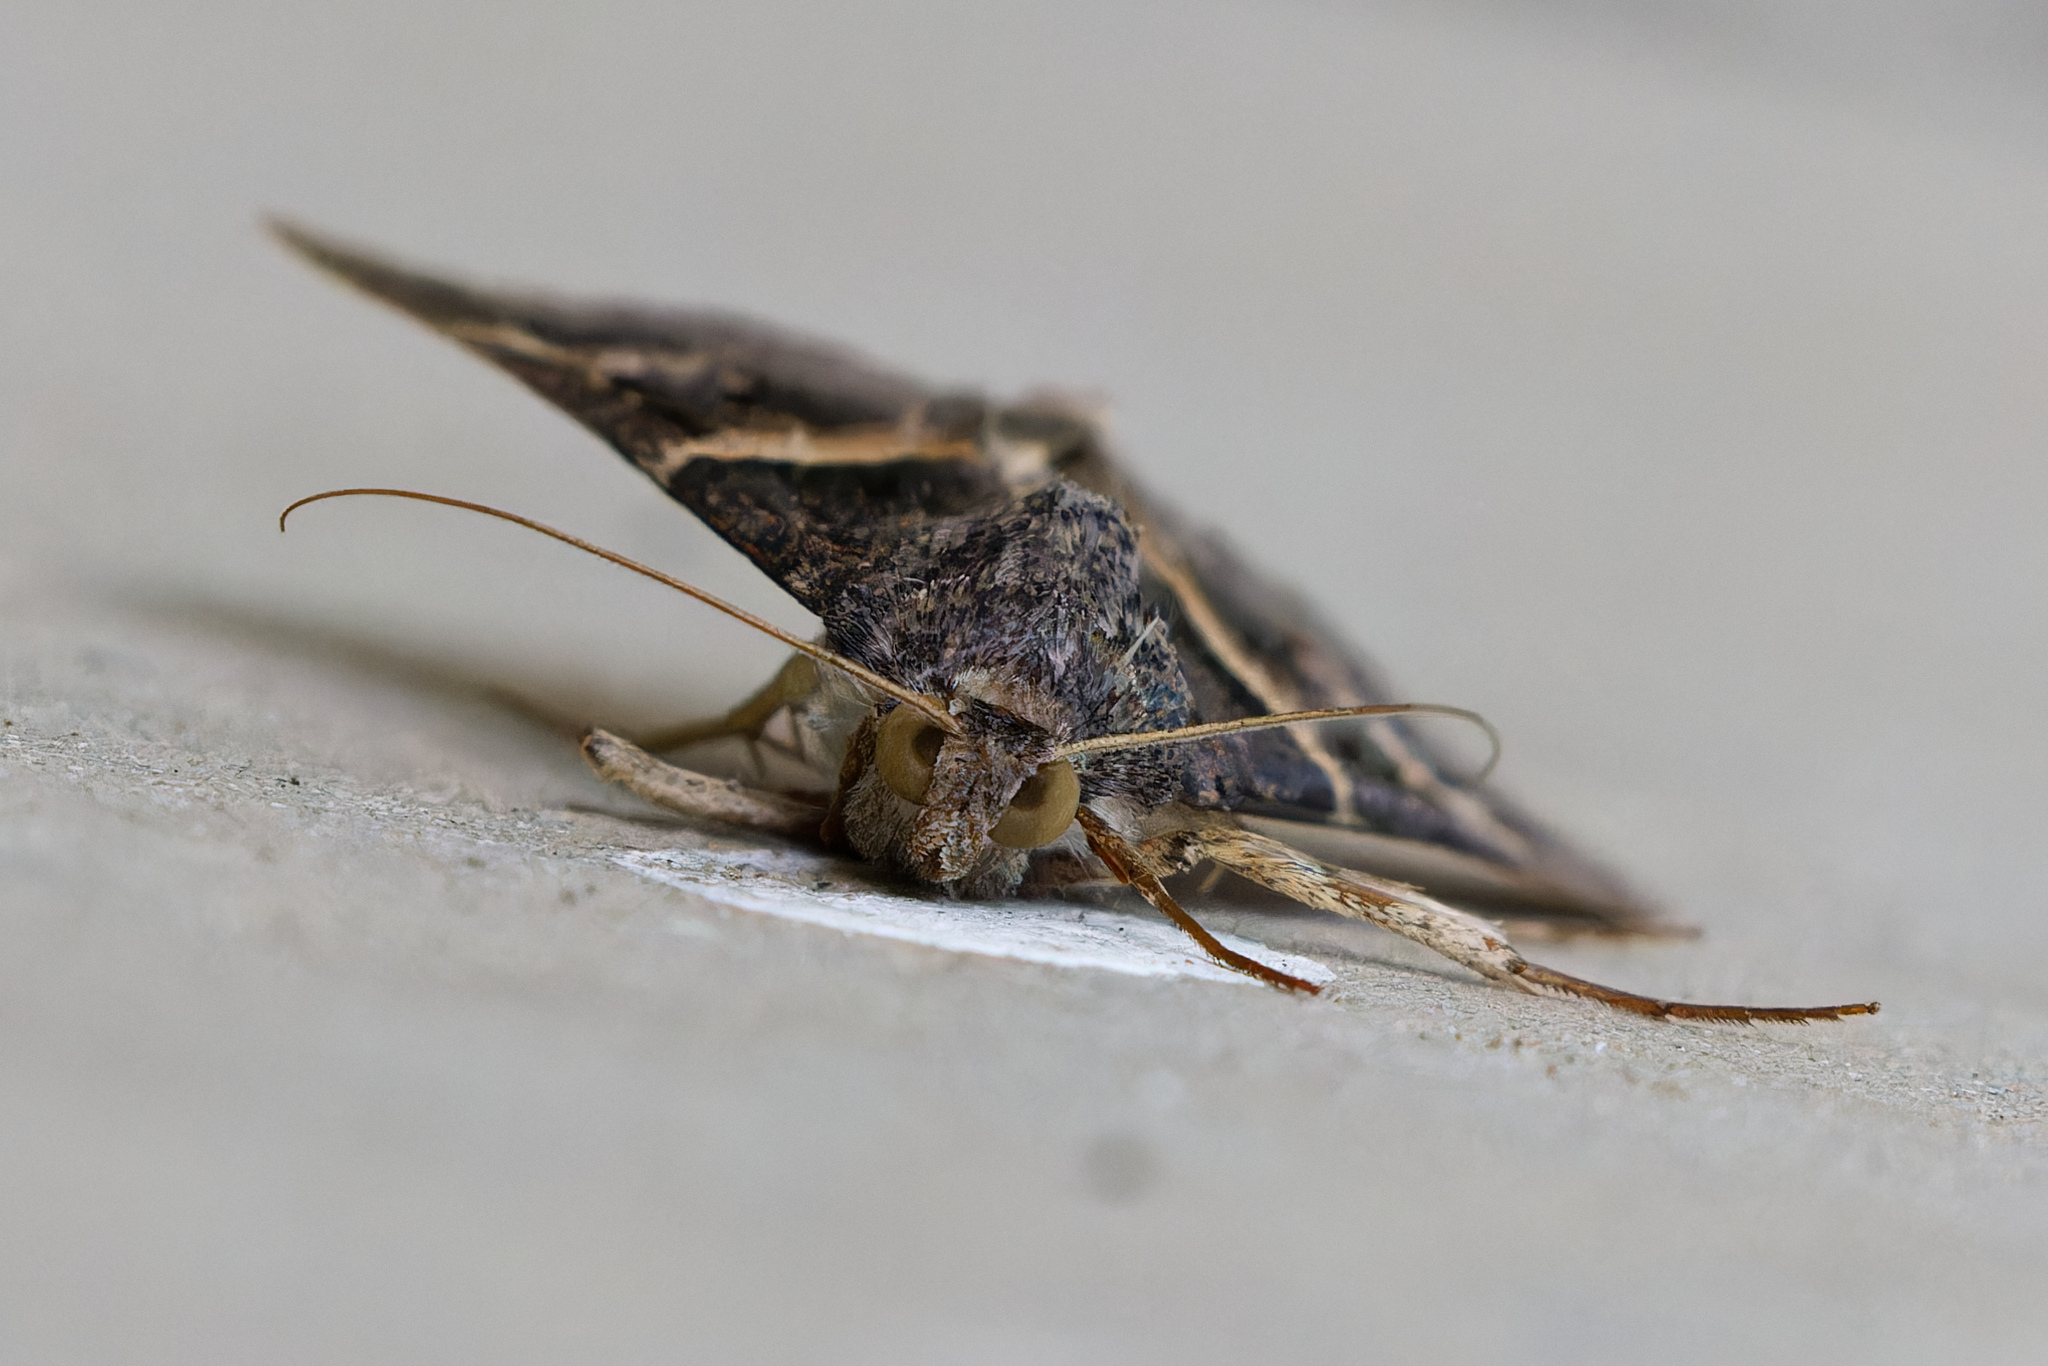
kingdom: Animalia
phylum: Arthropoda
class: Insecta
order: Lepidoptera
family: Erebidae
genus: Melipotis
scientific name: Melipotis indomita
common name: Moth
